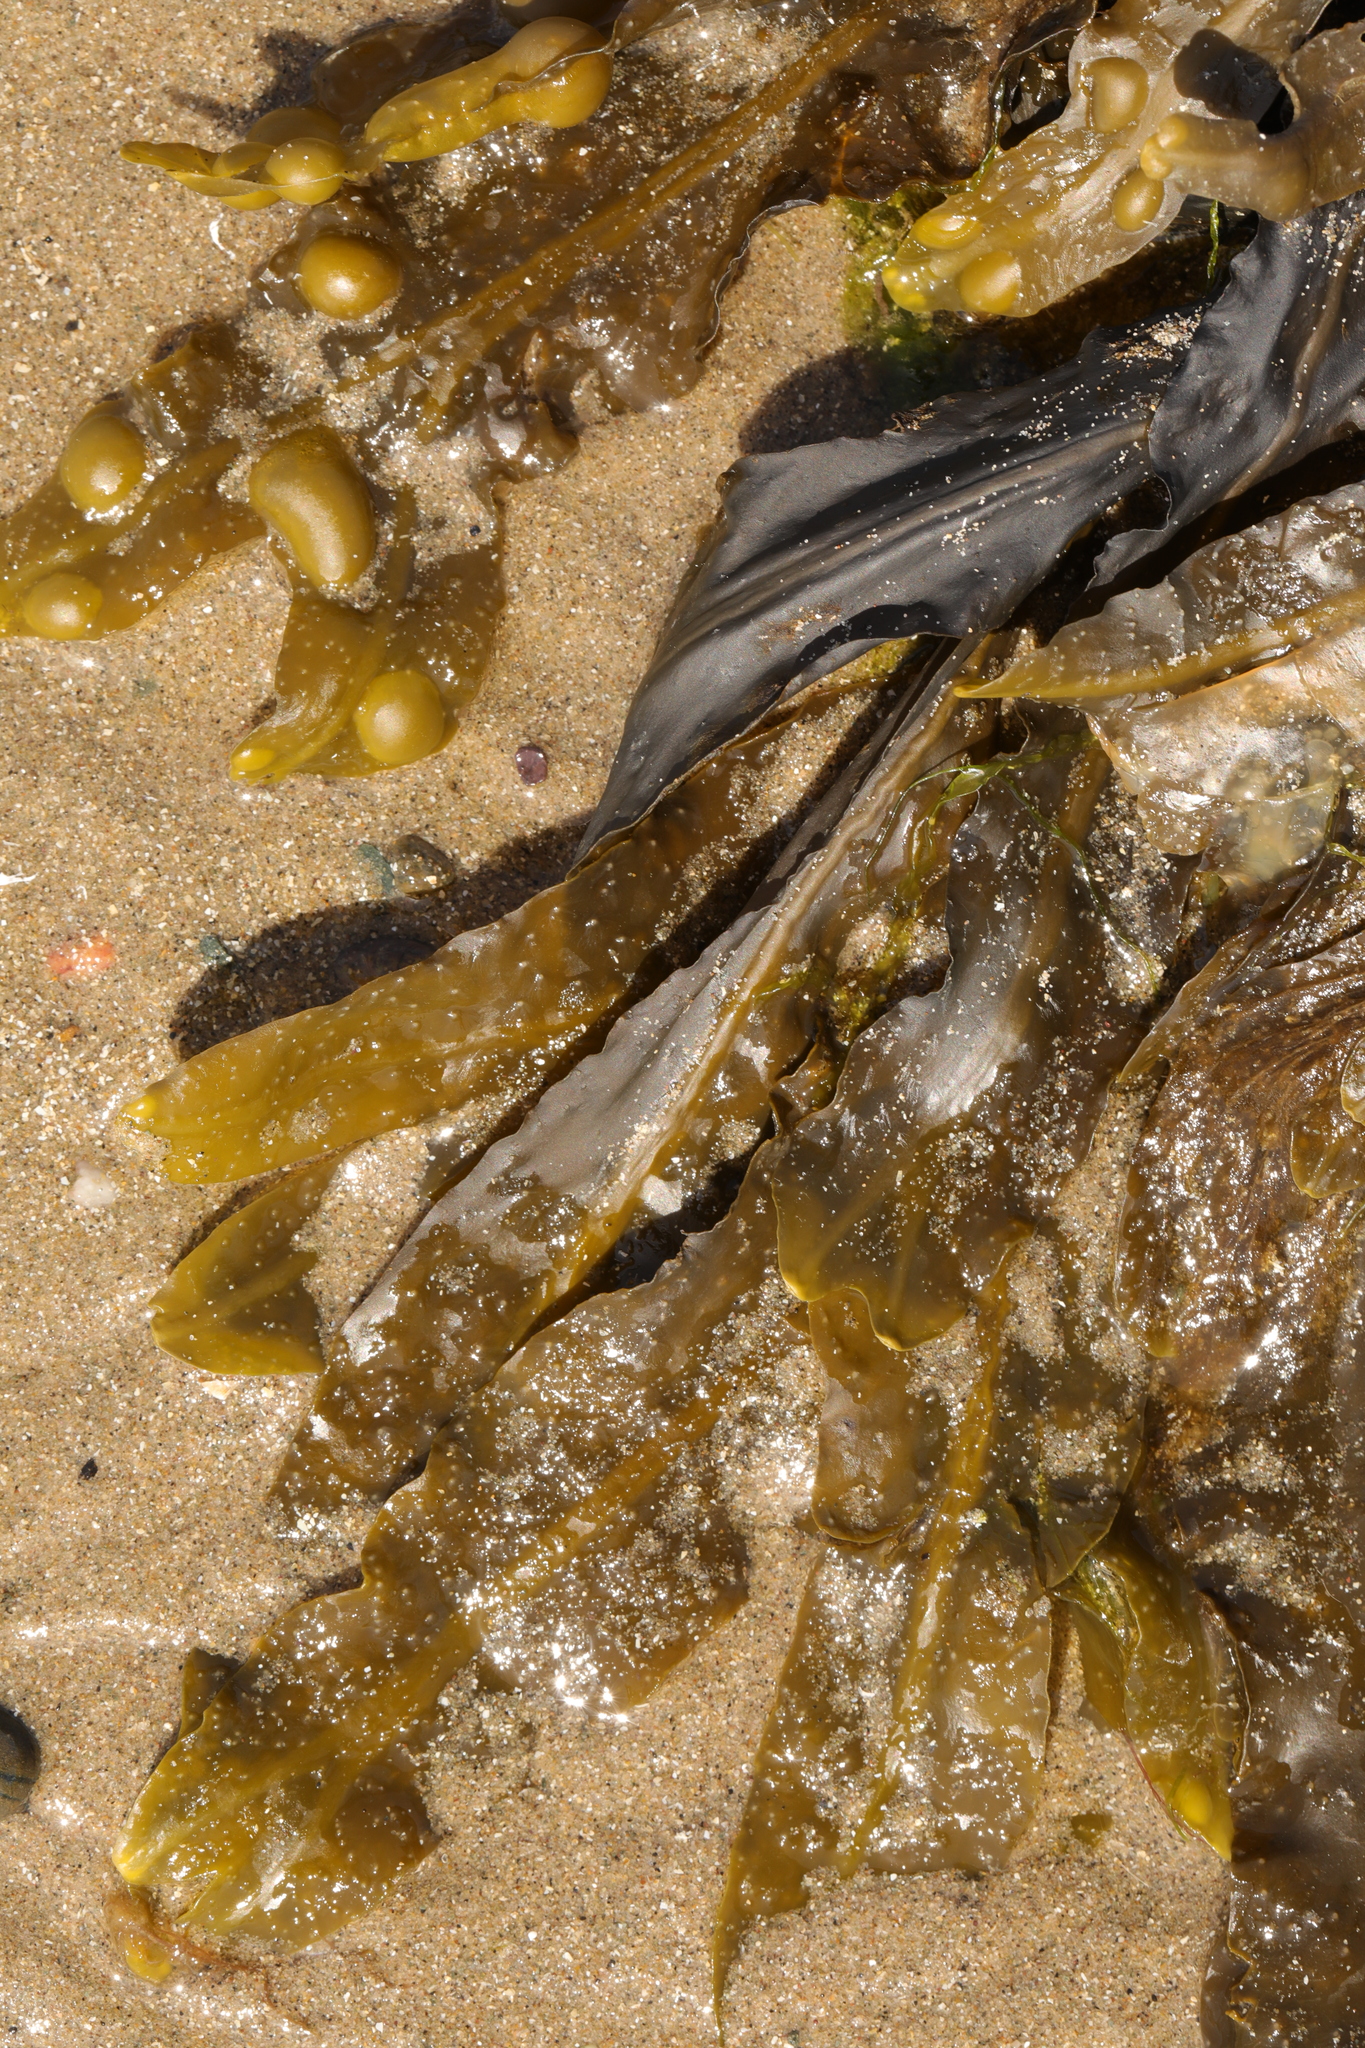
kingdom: Chromista
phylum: Ochrophyta
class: Phaeophyceae
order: Fucales
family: Fucaceae
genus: Fucus
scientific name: Fucus vesiculosus
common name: Bladder wrack
